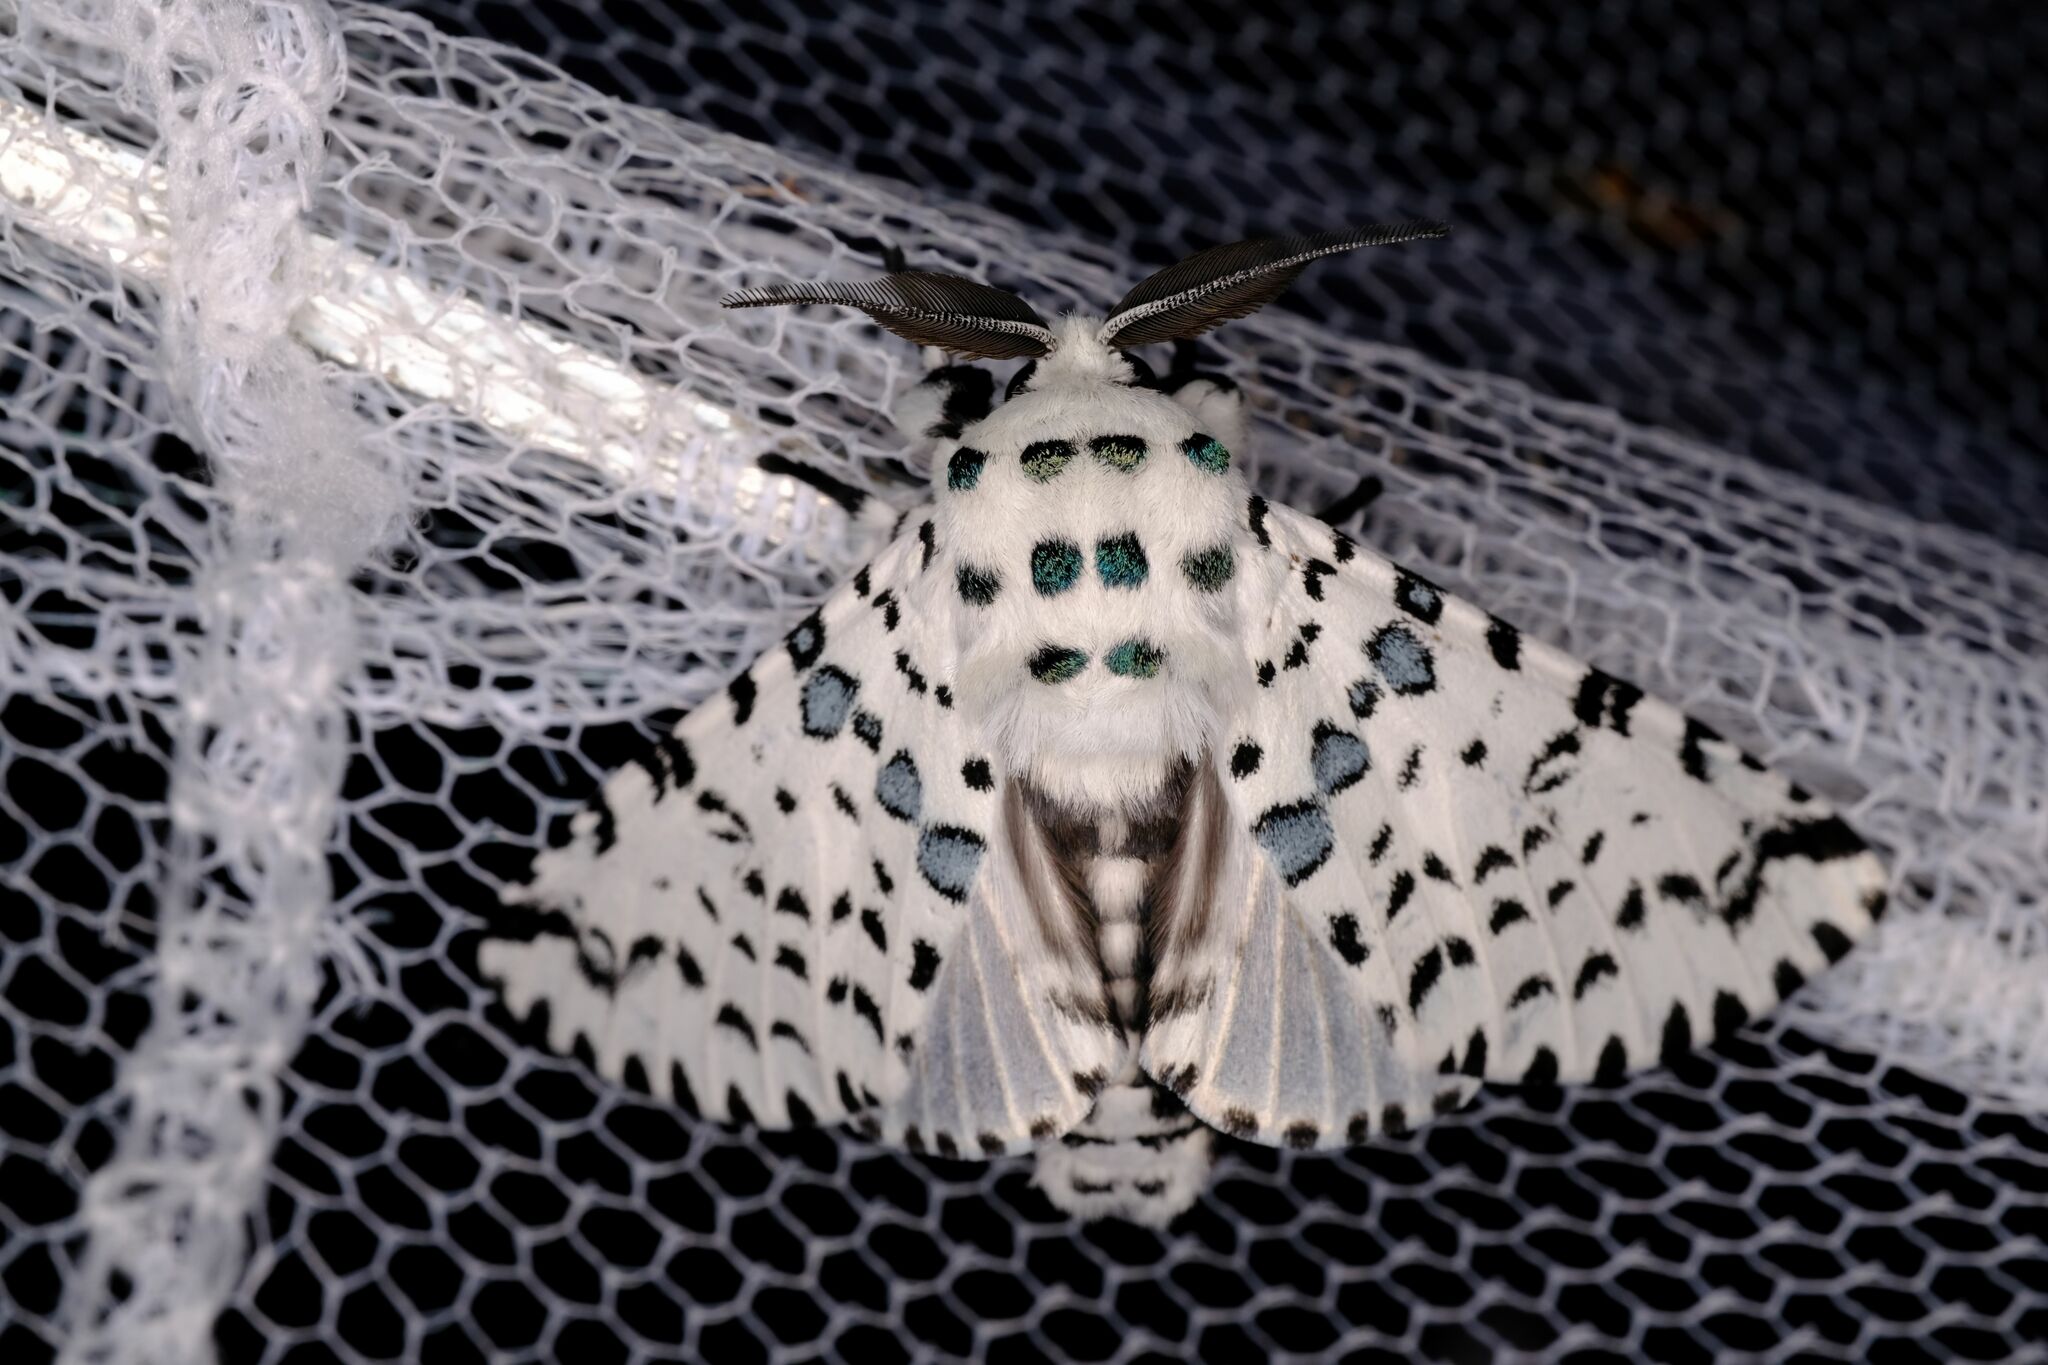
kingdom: Animalia
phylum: Arthropoda
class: Insecta
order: Lepidoptera
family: Notodontidae
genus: Kamalia
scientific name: Kamalia
